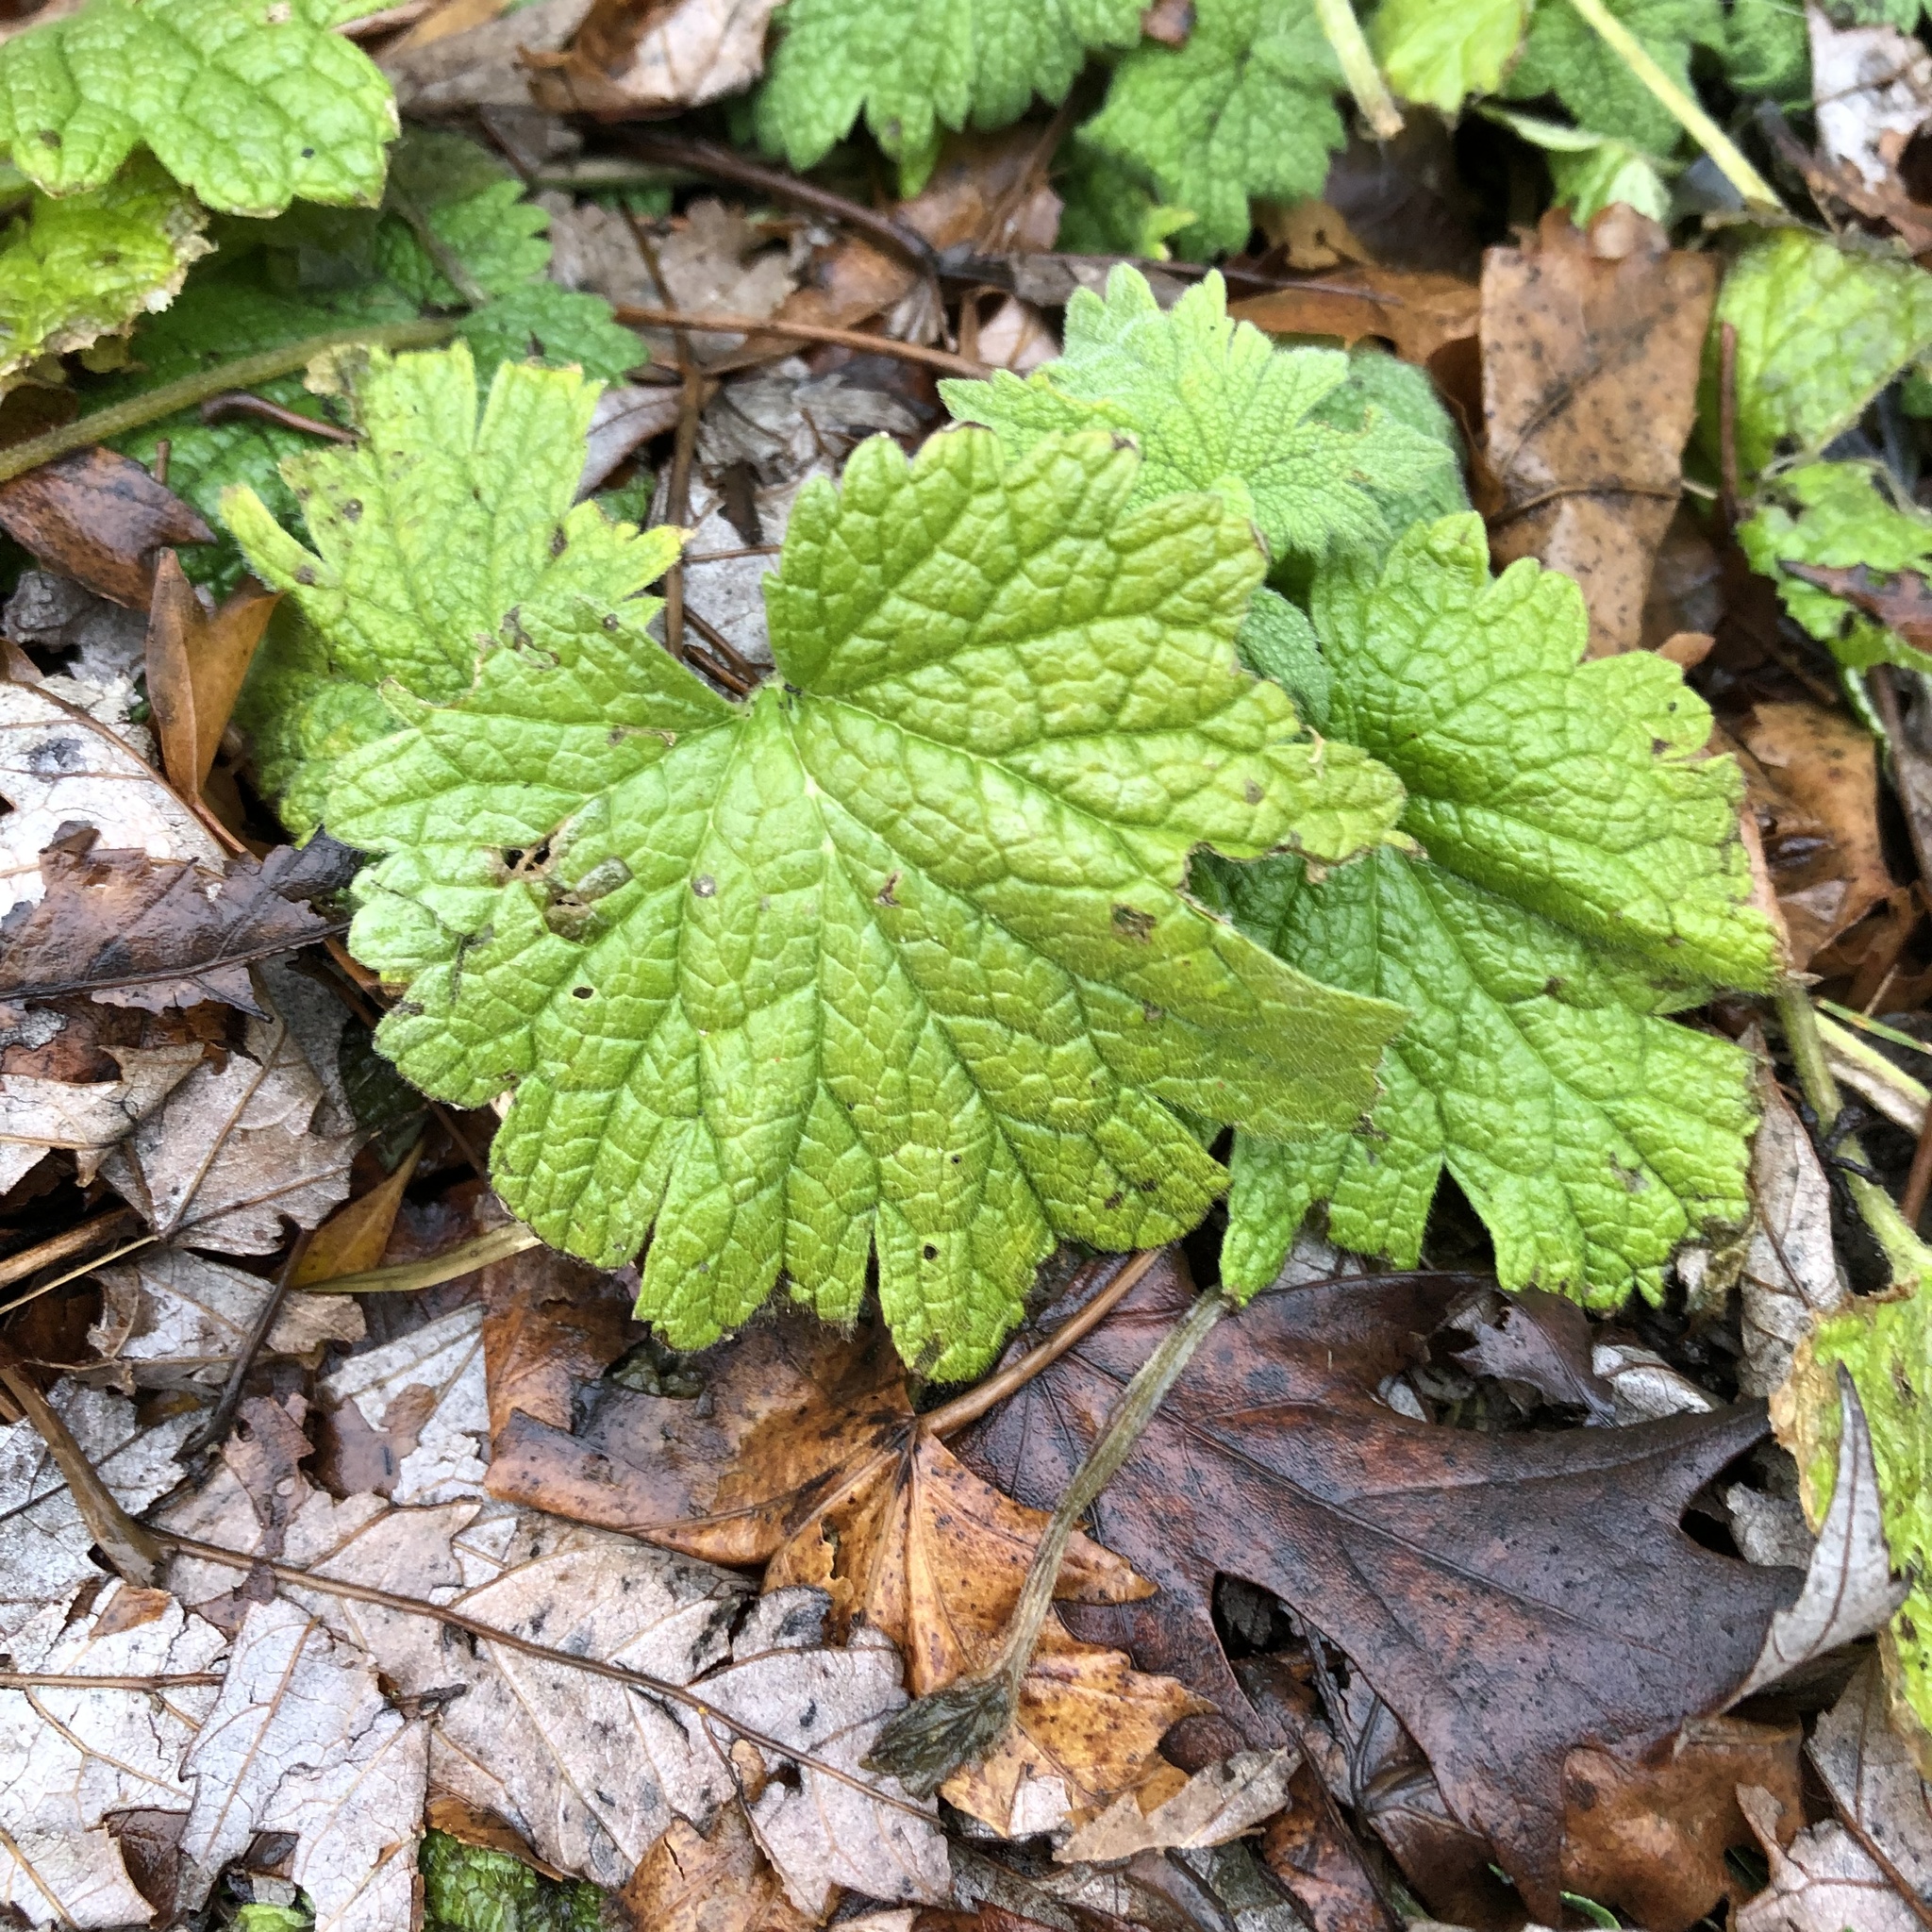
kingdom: Plantae
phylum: Tracheophyta
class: Magnoliopsida
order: Lamiales
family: Lamiaceae
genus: Leonurus
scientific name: Leonurus cardiaca
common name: Motherwort
